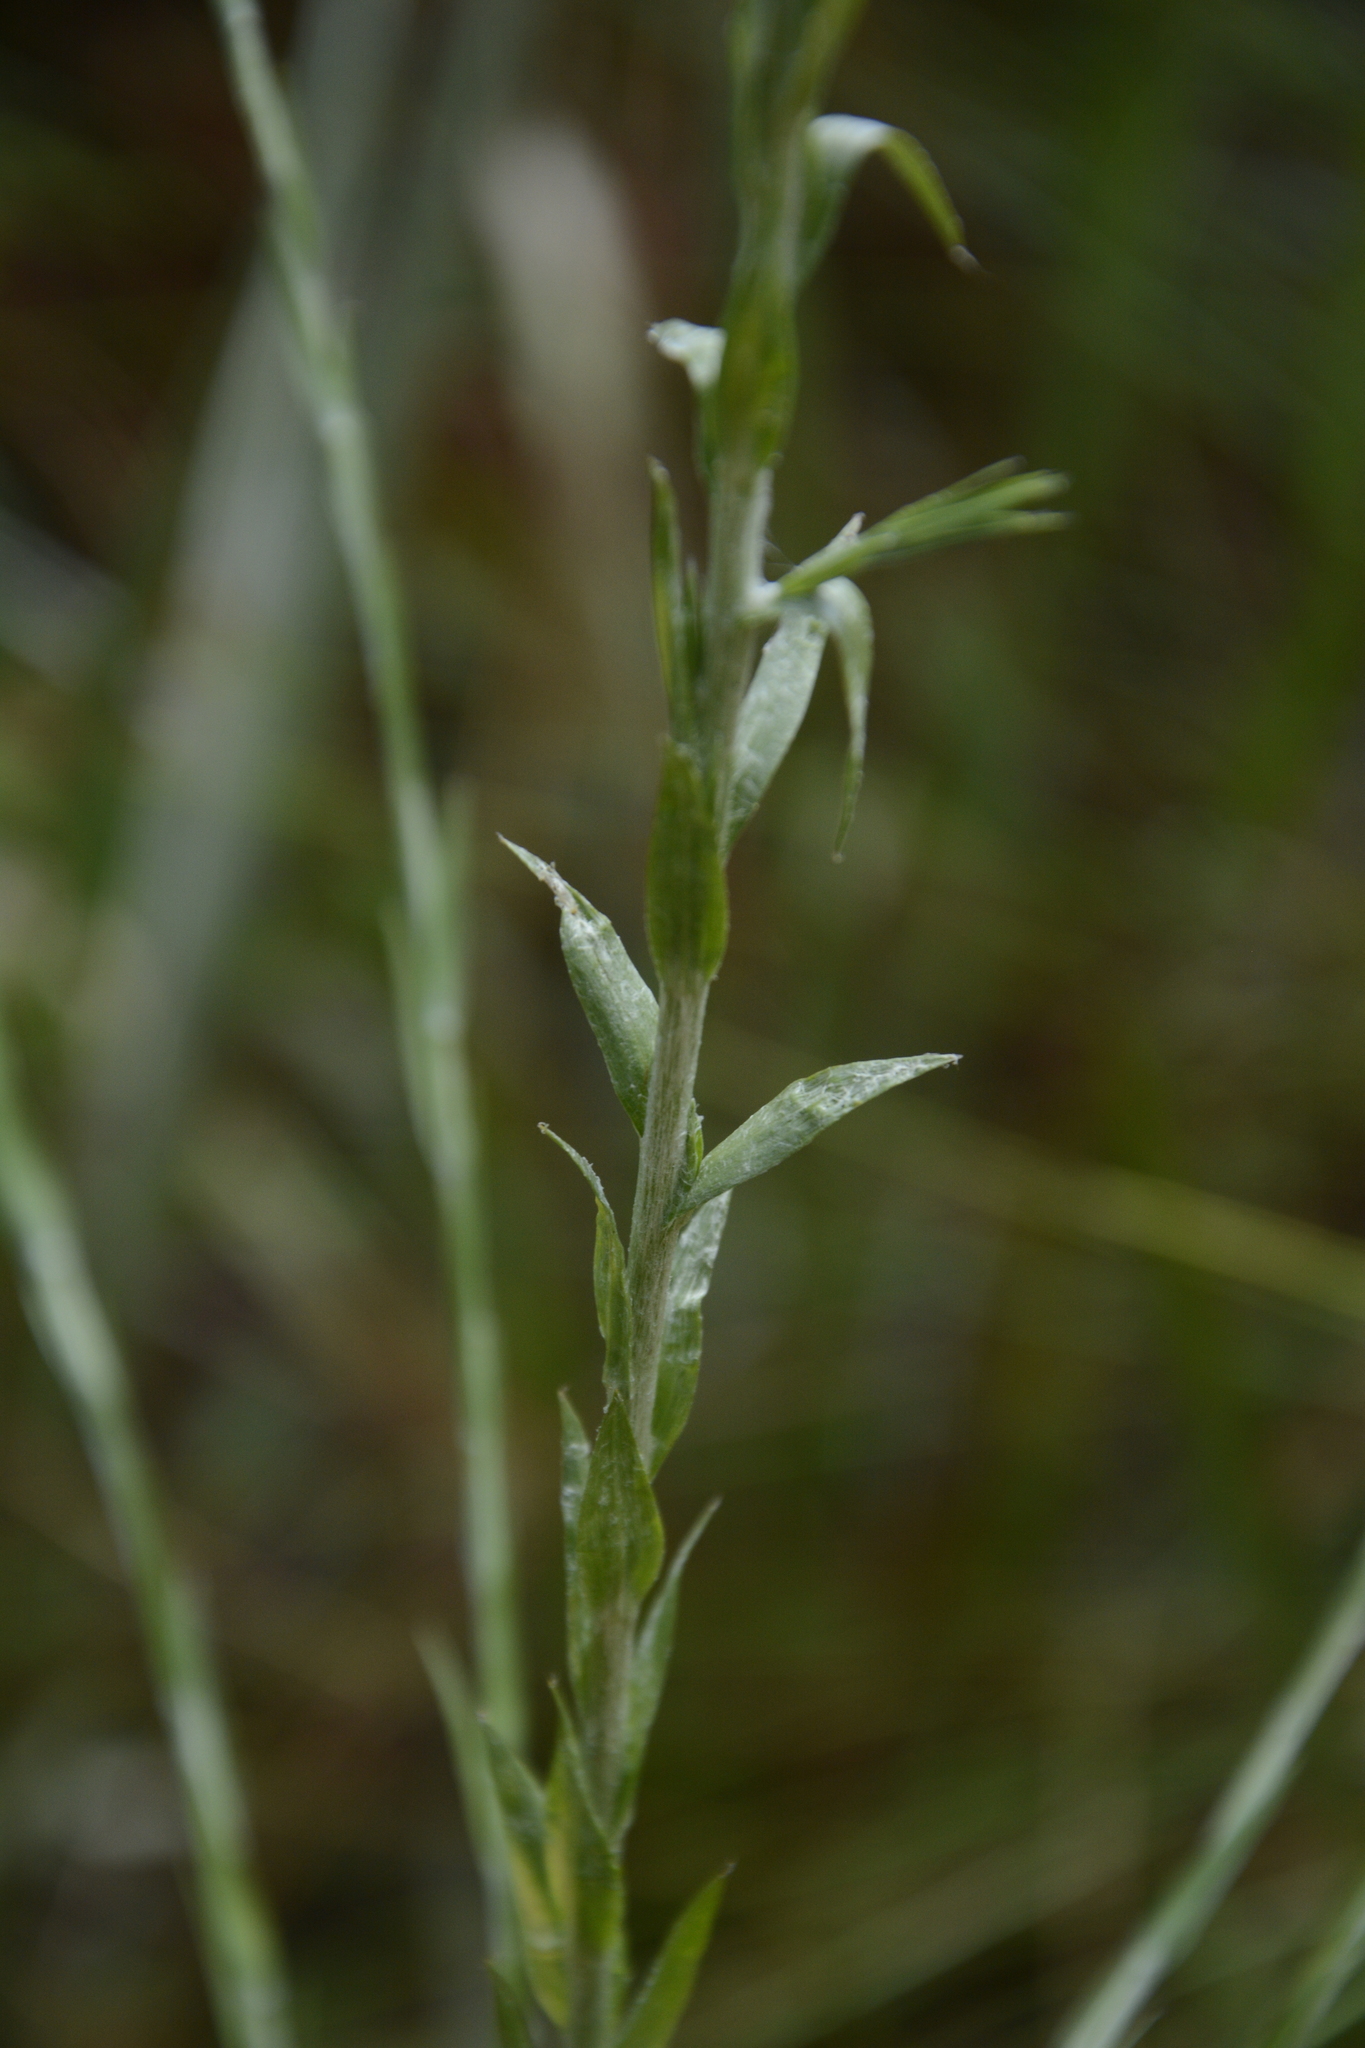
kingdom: Plantae
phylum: Tracheophyta
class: Magnoliopsida
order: Asterales
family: Asteraceae
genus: Pityopsis
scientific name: Pityopsis graminifolia
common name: Grass-leaf golden-aster
